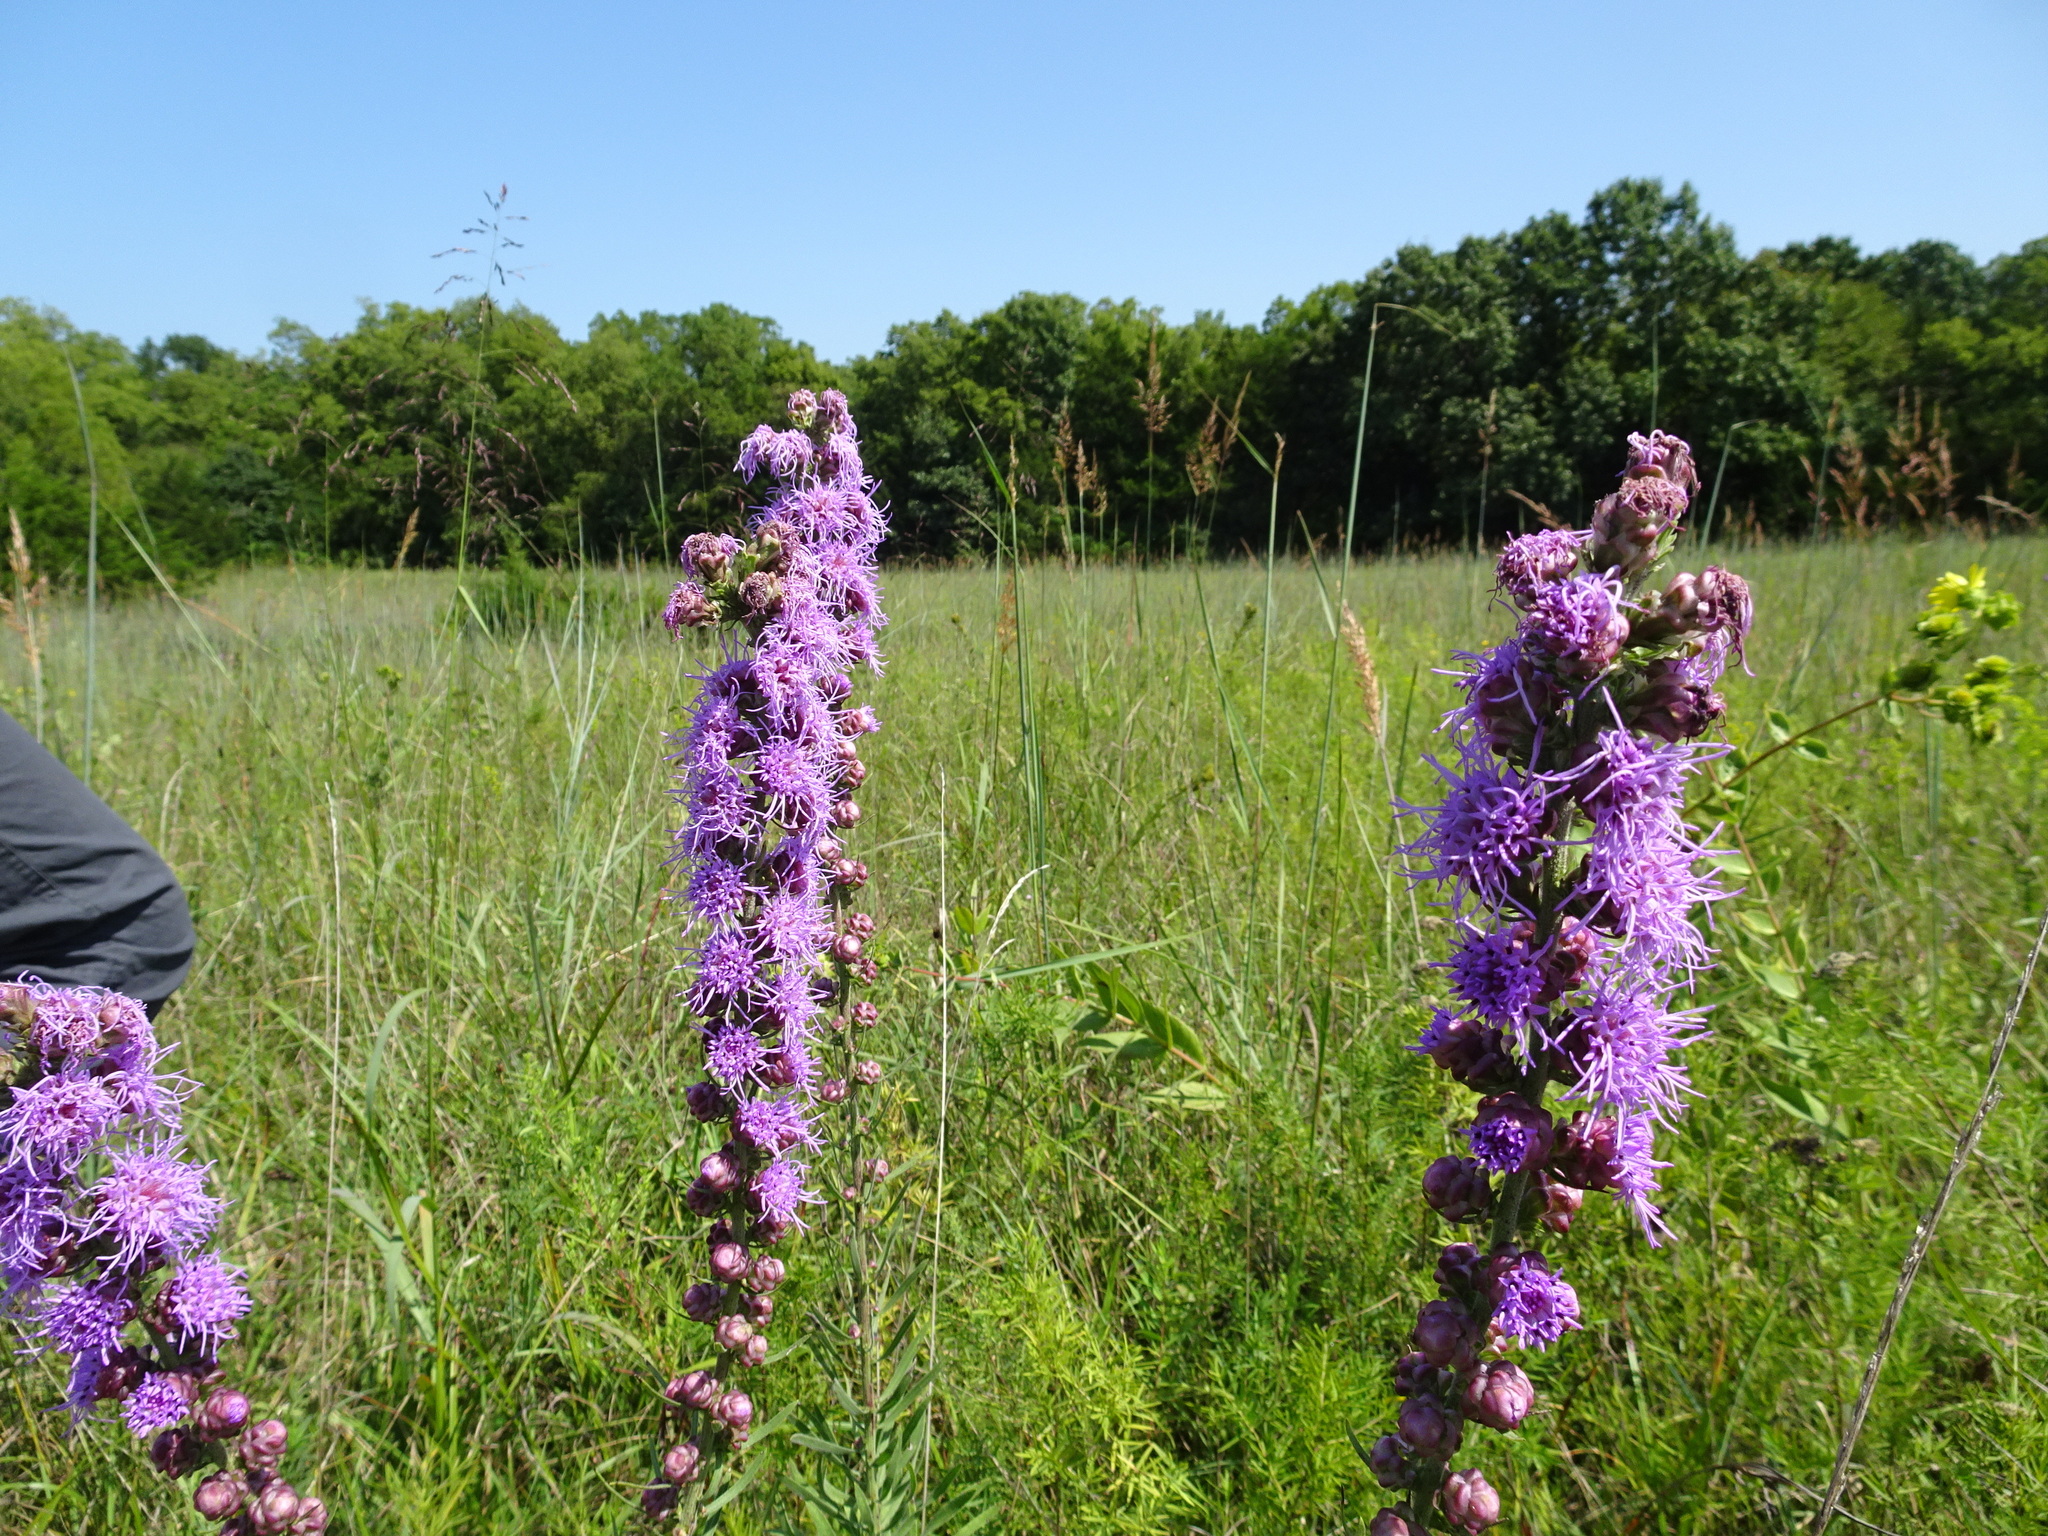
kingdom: Plantae
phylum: Tracheophyta
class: Magnoliopsida
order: Asterales
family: Asteraceae
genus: Liatris
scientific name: Liatris aspera
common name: Lacerate blazing-star
